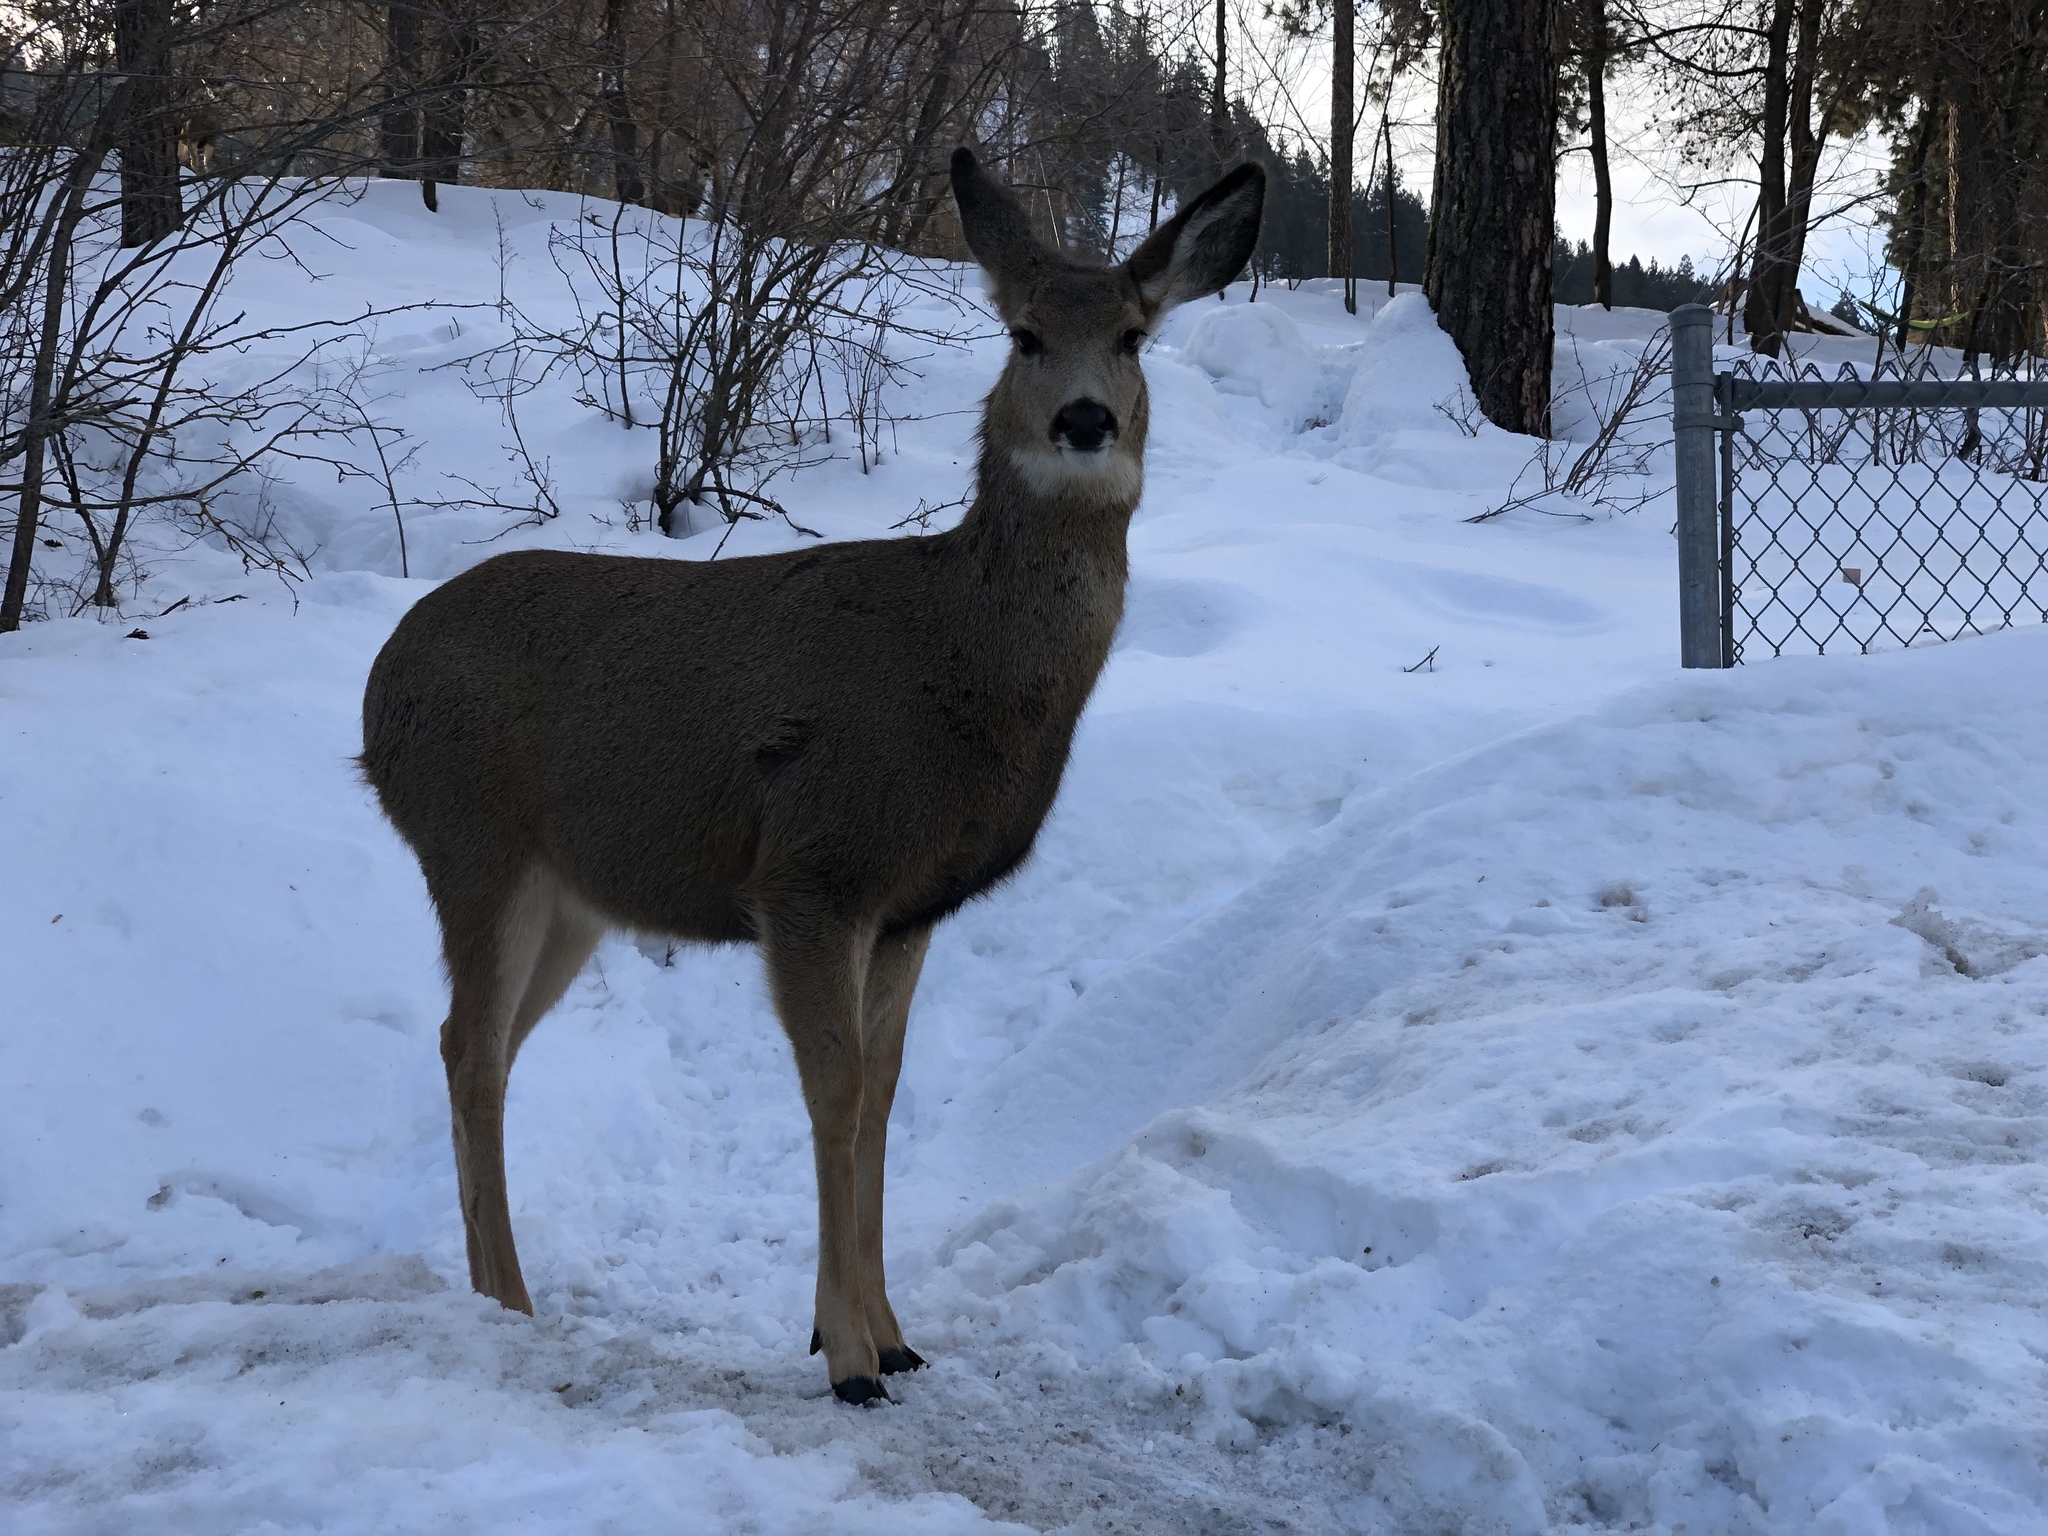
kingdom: Animalia
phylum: Chordata
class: Mammalia
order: Artiodactyla
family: Cervidae
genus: Odocoileus
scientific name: Odocoileus hemionus
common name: Mule deer
